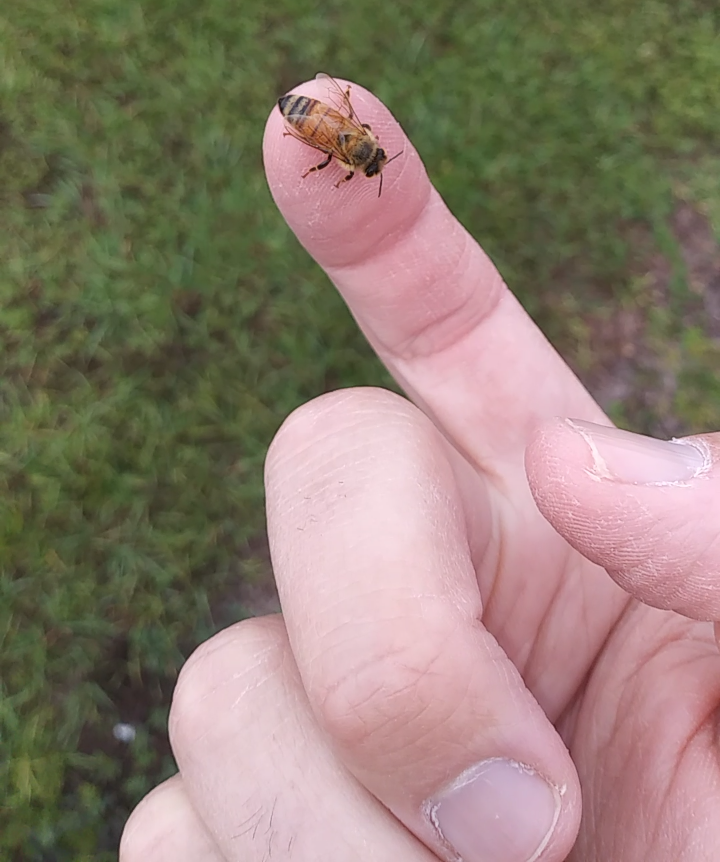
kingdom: Animalia
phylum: Arthropoda
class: Insecta
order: Hymenoptera
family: Apidae
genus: Apis
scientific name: Apis mellifera
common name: Honey bee
